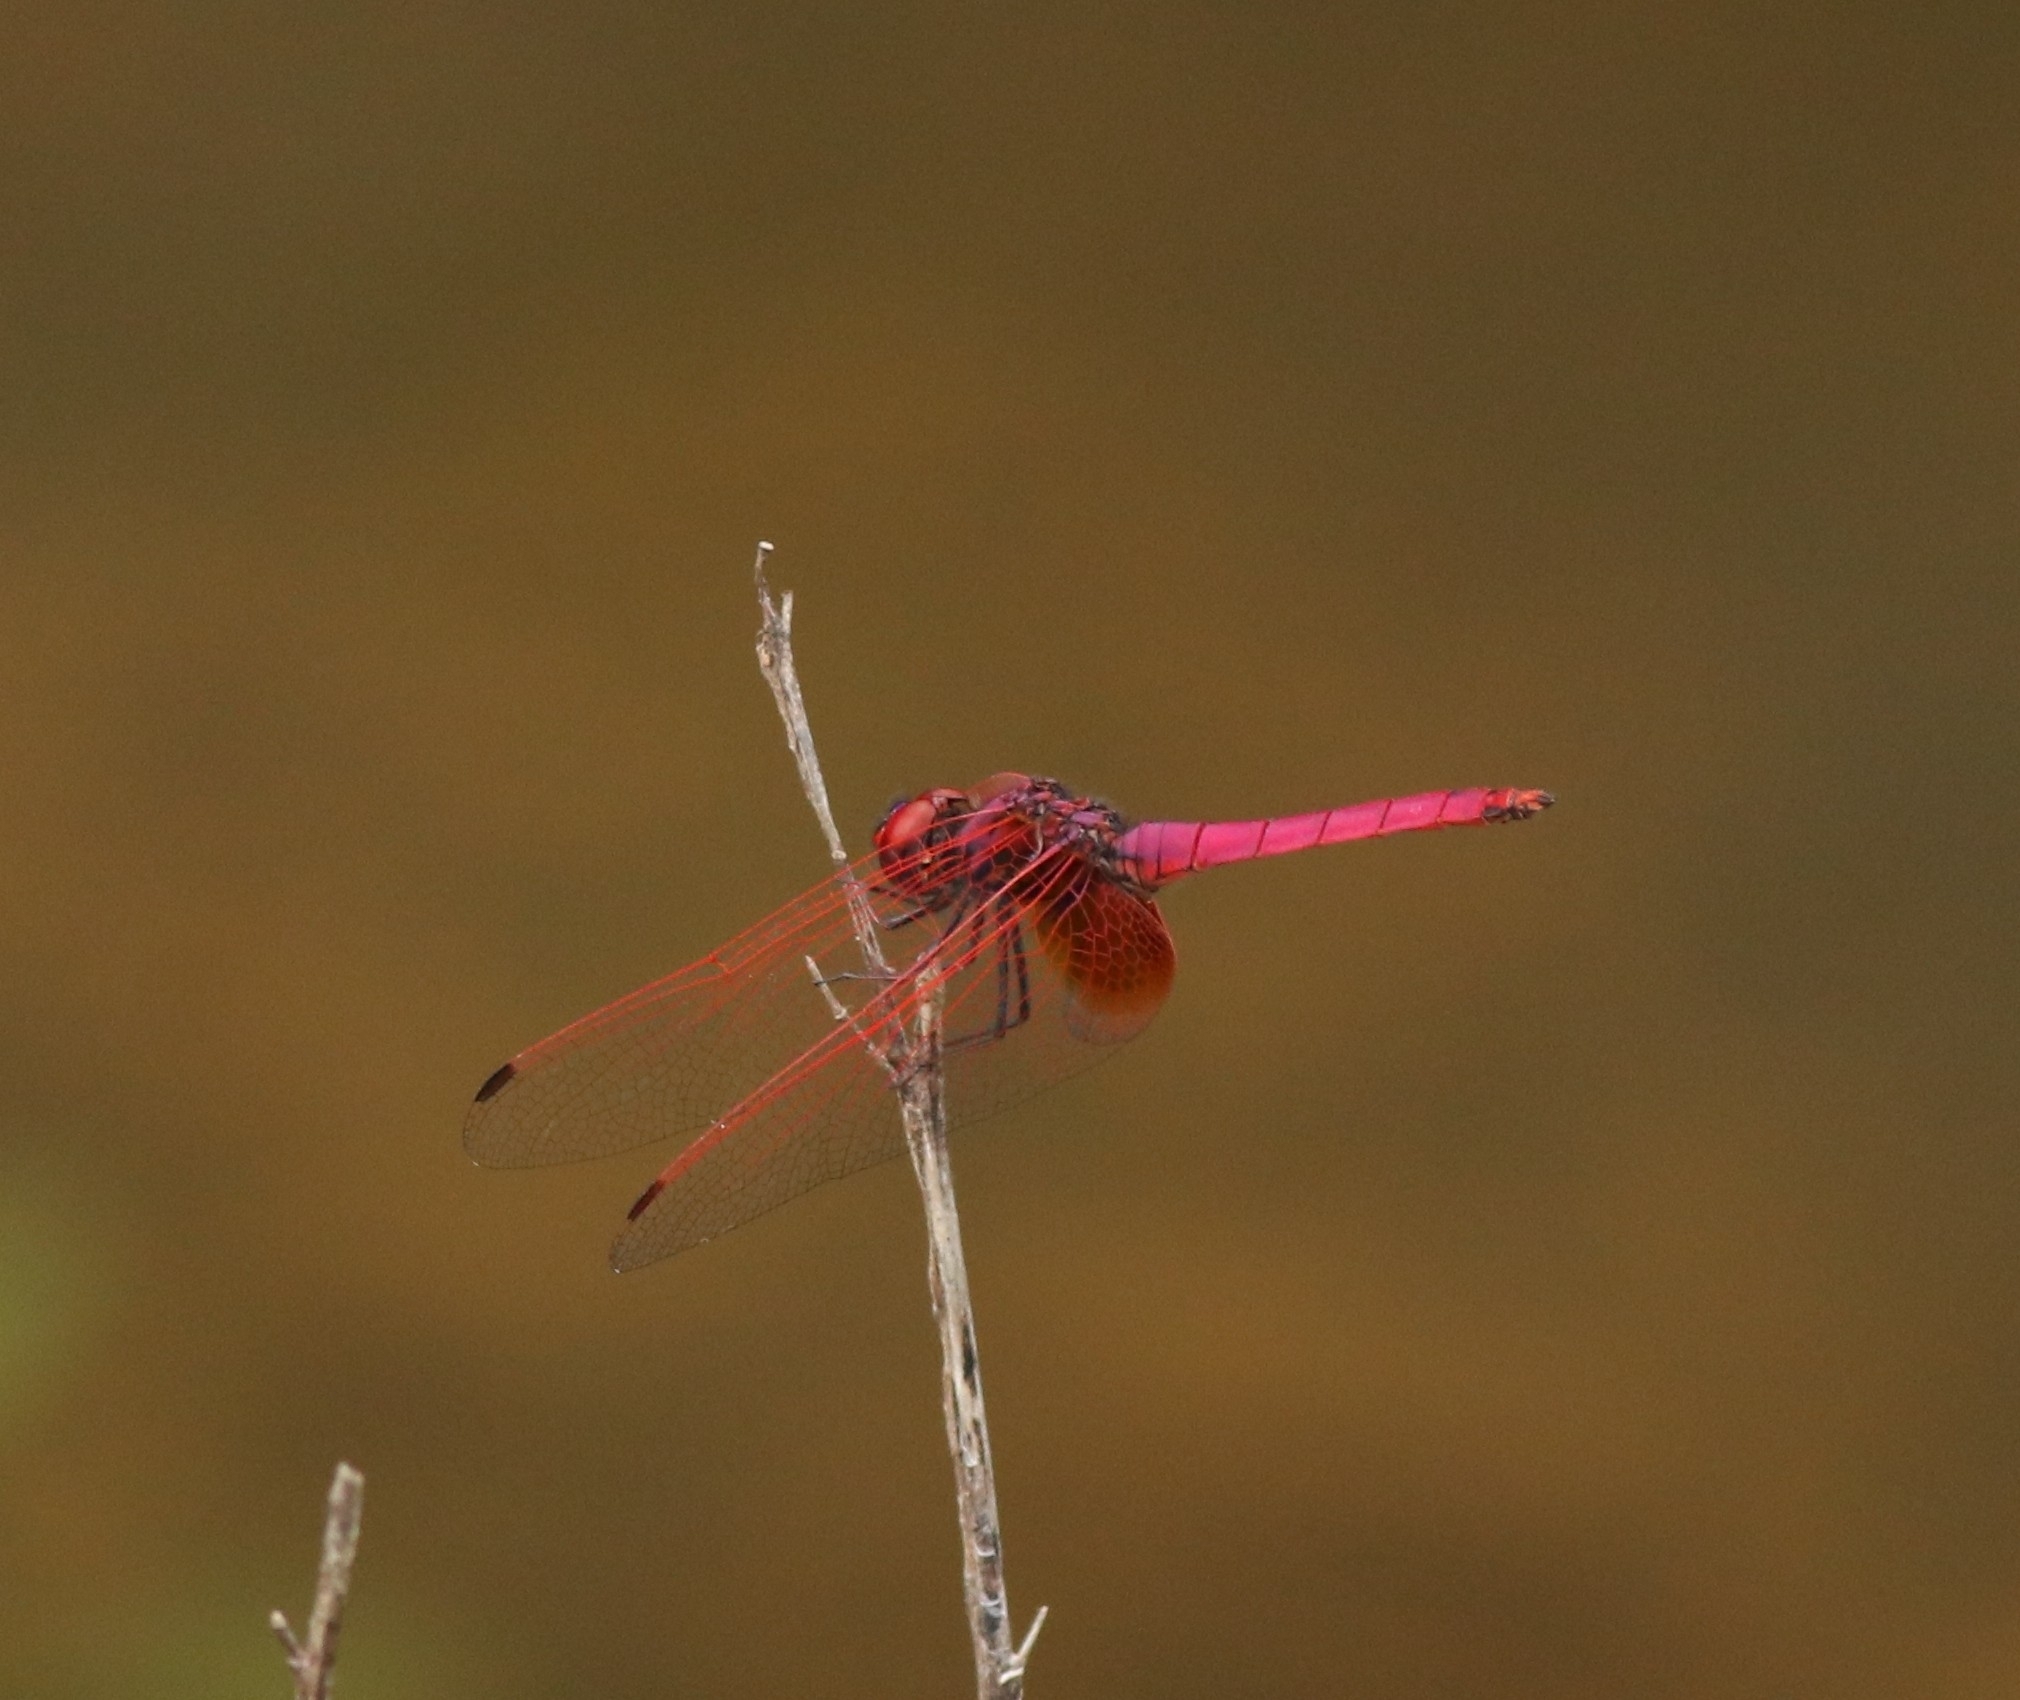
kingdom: Animalia
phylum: Arthropoda
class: Insecta
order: Odonata
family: Libellulidae
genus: Trithemis
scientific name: Trithemis aurora
